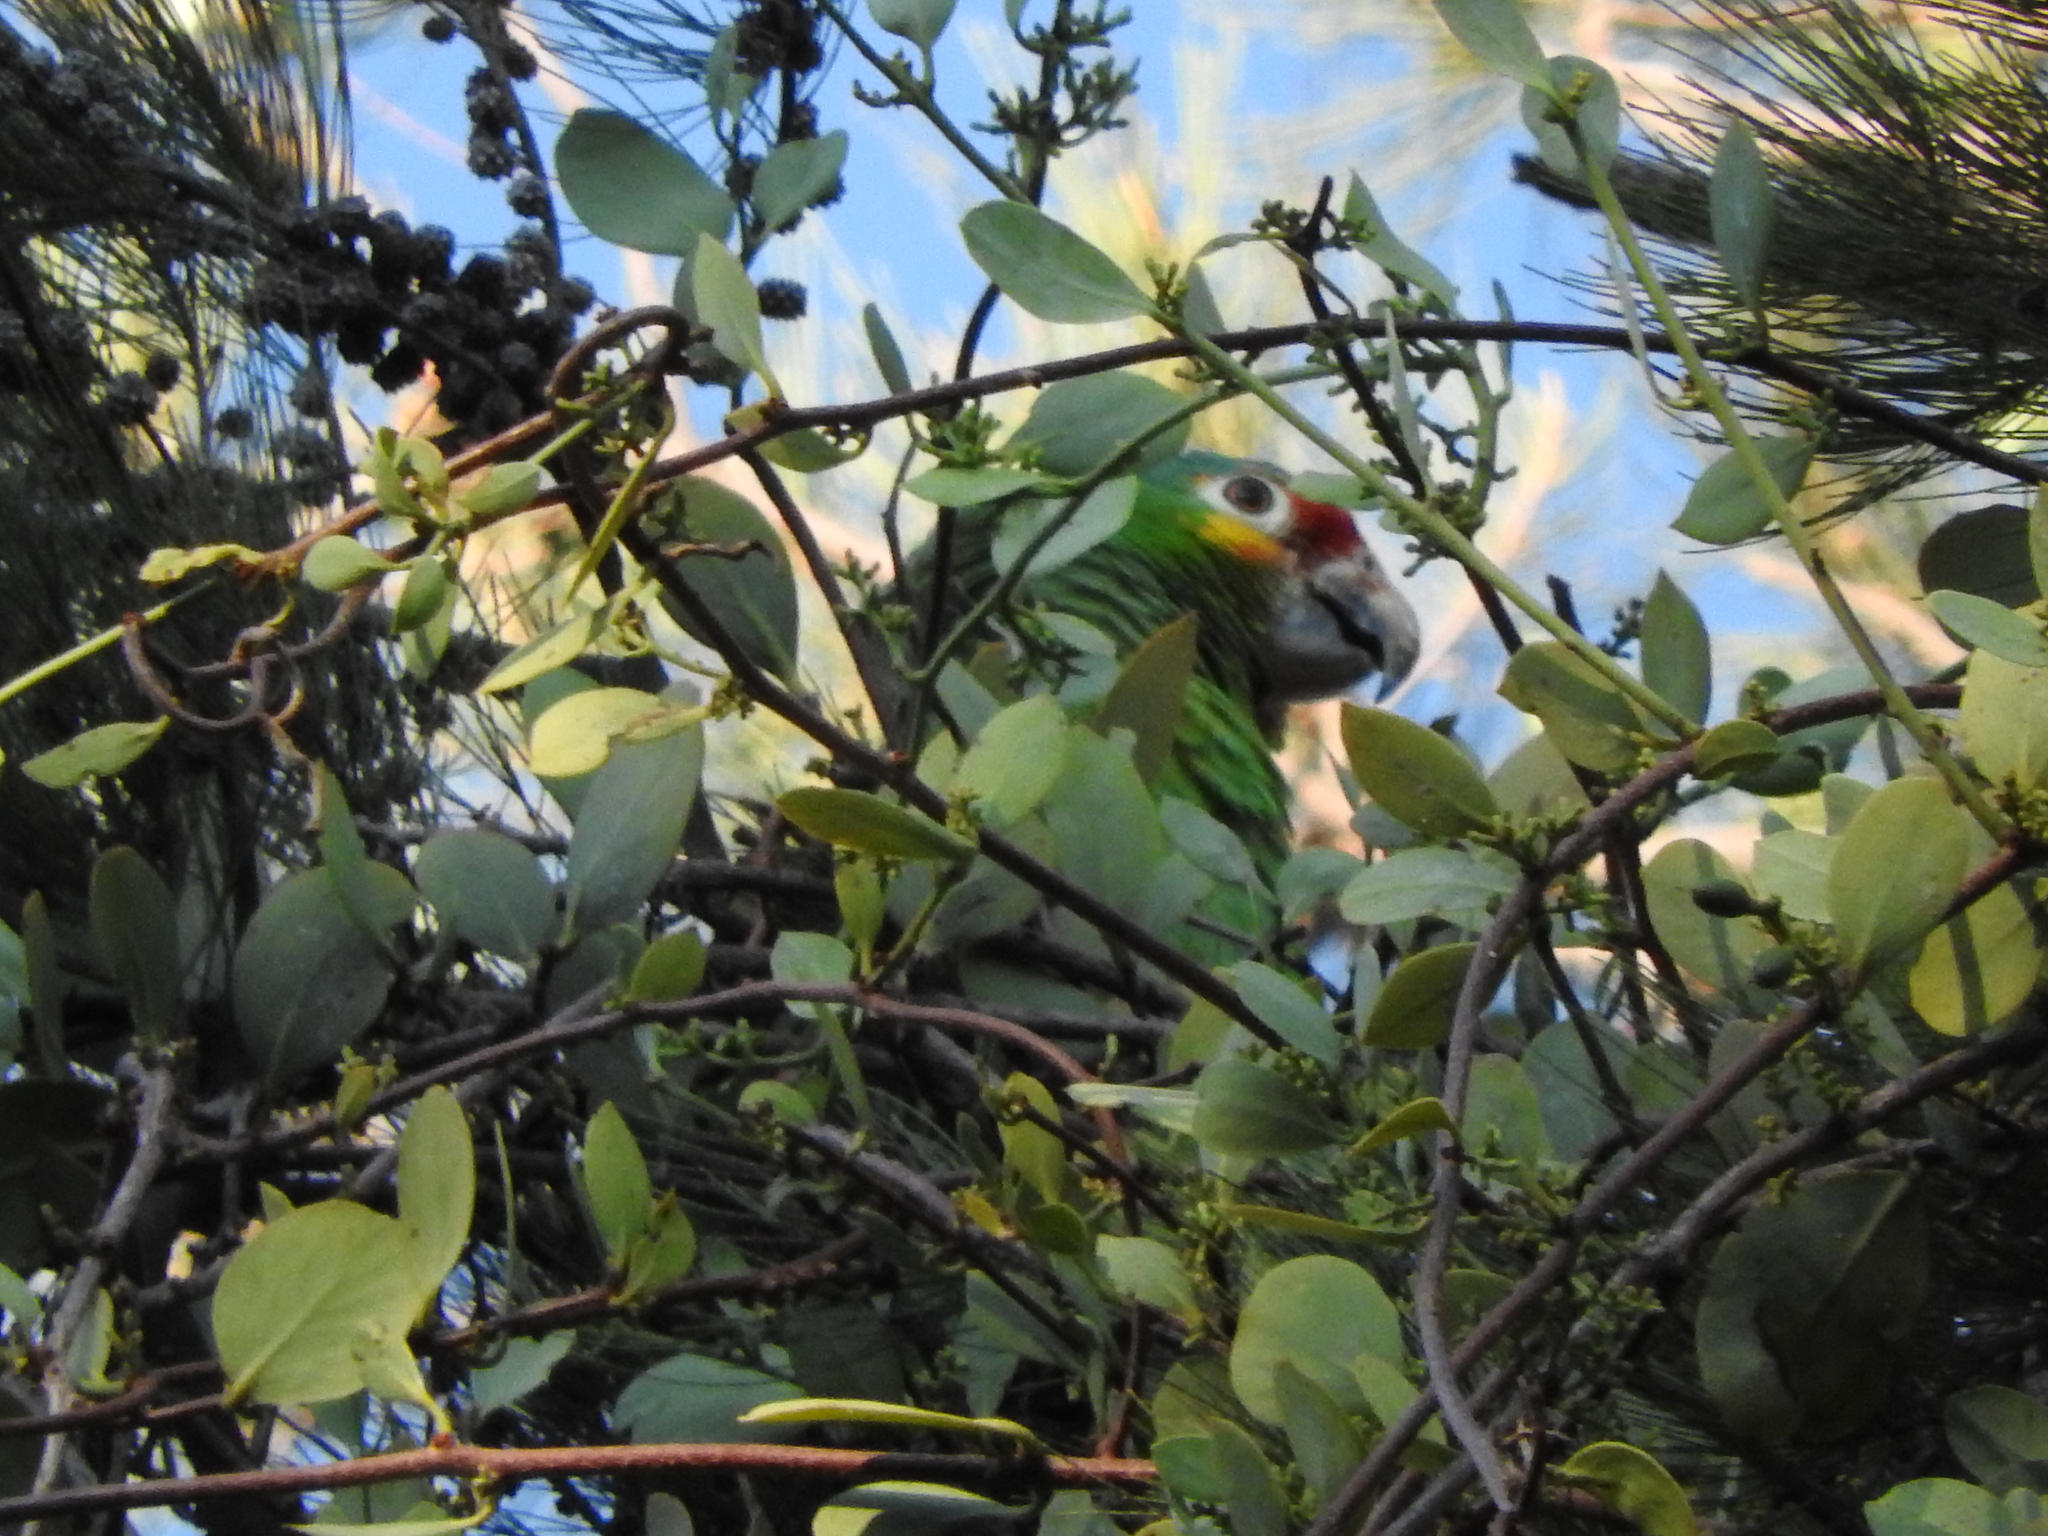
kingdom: Animalia
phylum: Chordata
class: Aves
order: Psittaciformes
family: Psittacidae
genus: Amazona
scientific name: Amazona autumnalis
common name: Red-lored amazon
